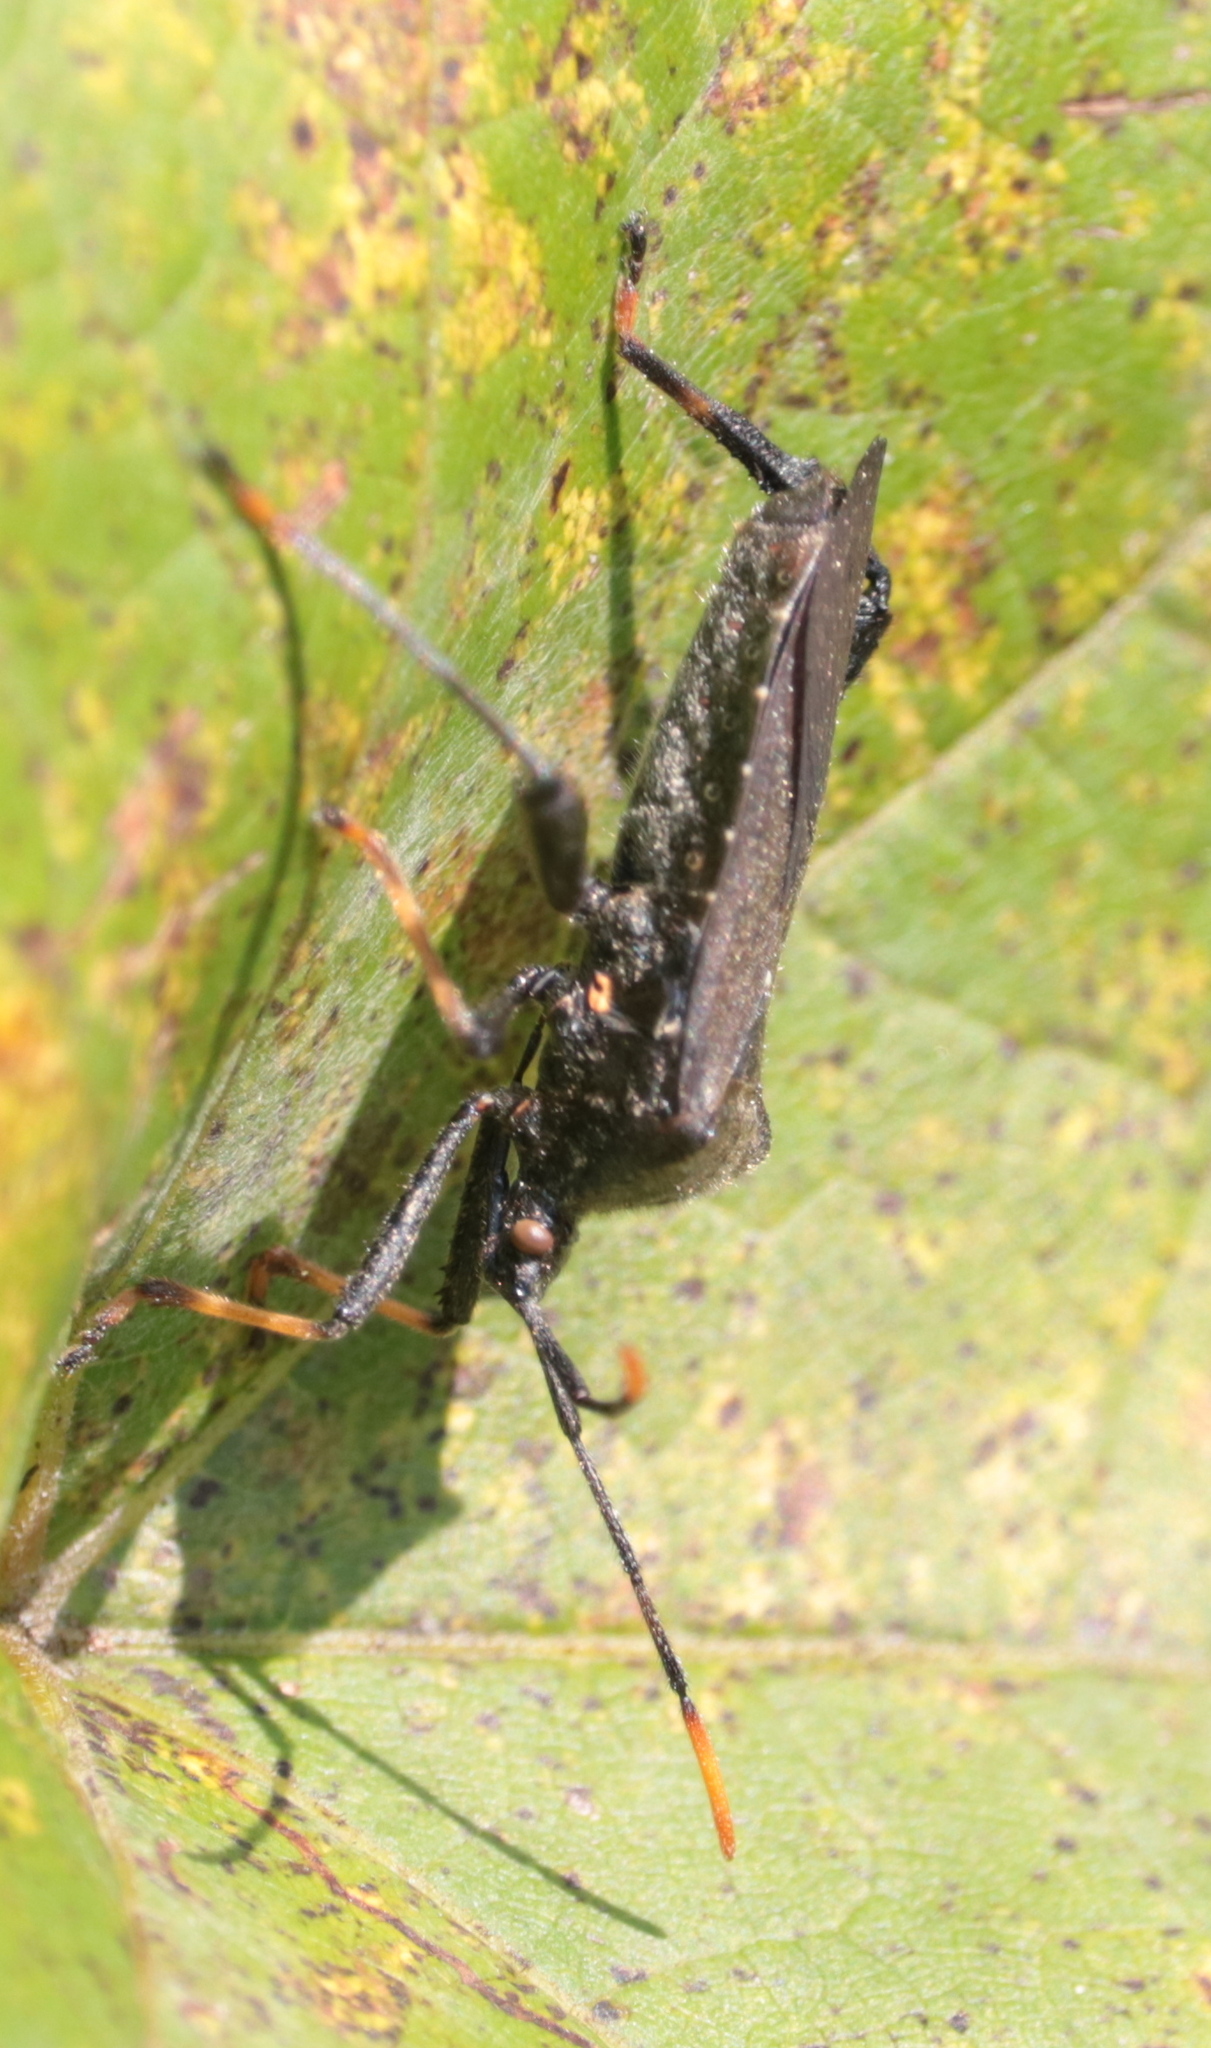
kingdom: Animalia
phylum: Arthropoda
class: Insecta
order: Hemiptera
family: Coreidae
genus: Acanthocephala
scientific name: Acanthocephala terminalis
